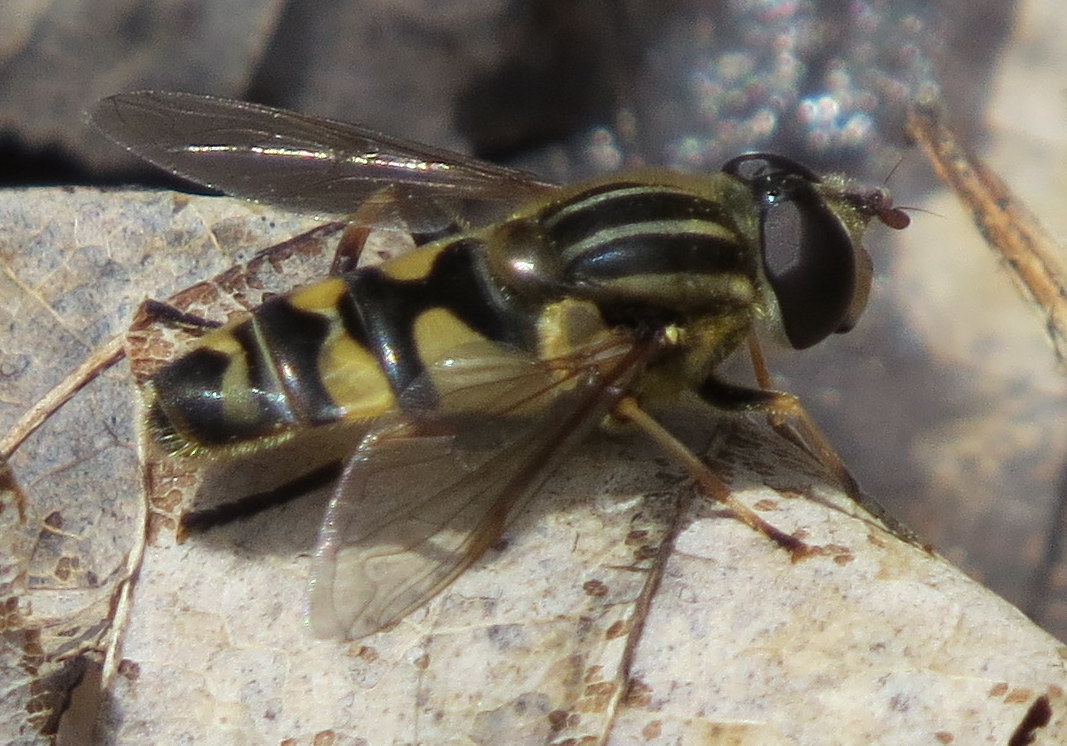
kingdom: Animalia
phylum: Arthropoda
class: Insecta
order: Diptera
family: Syrphidae
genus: Helophilus
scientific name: Helophilus fasciatus
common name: Narrow-headed marsh fly
